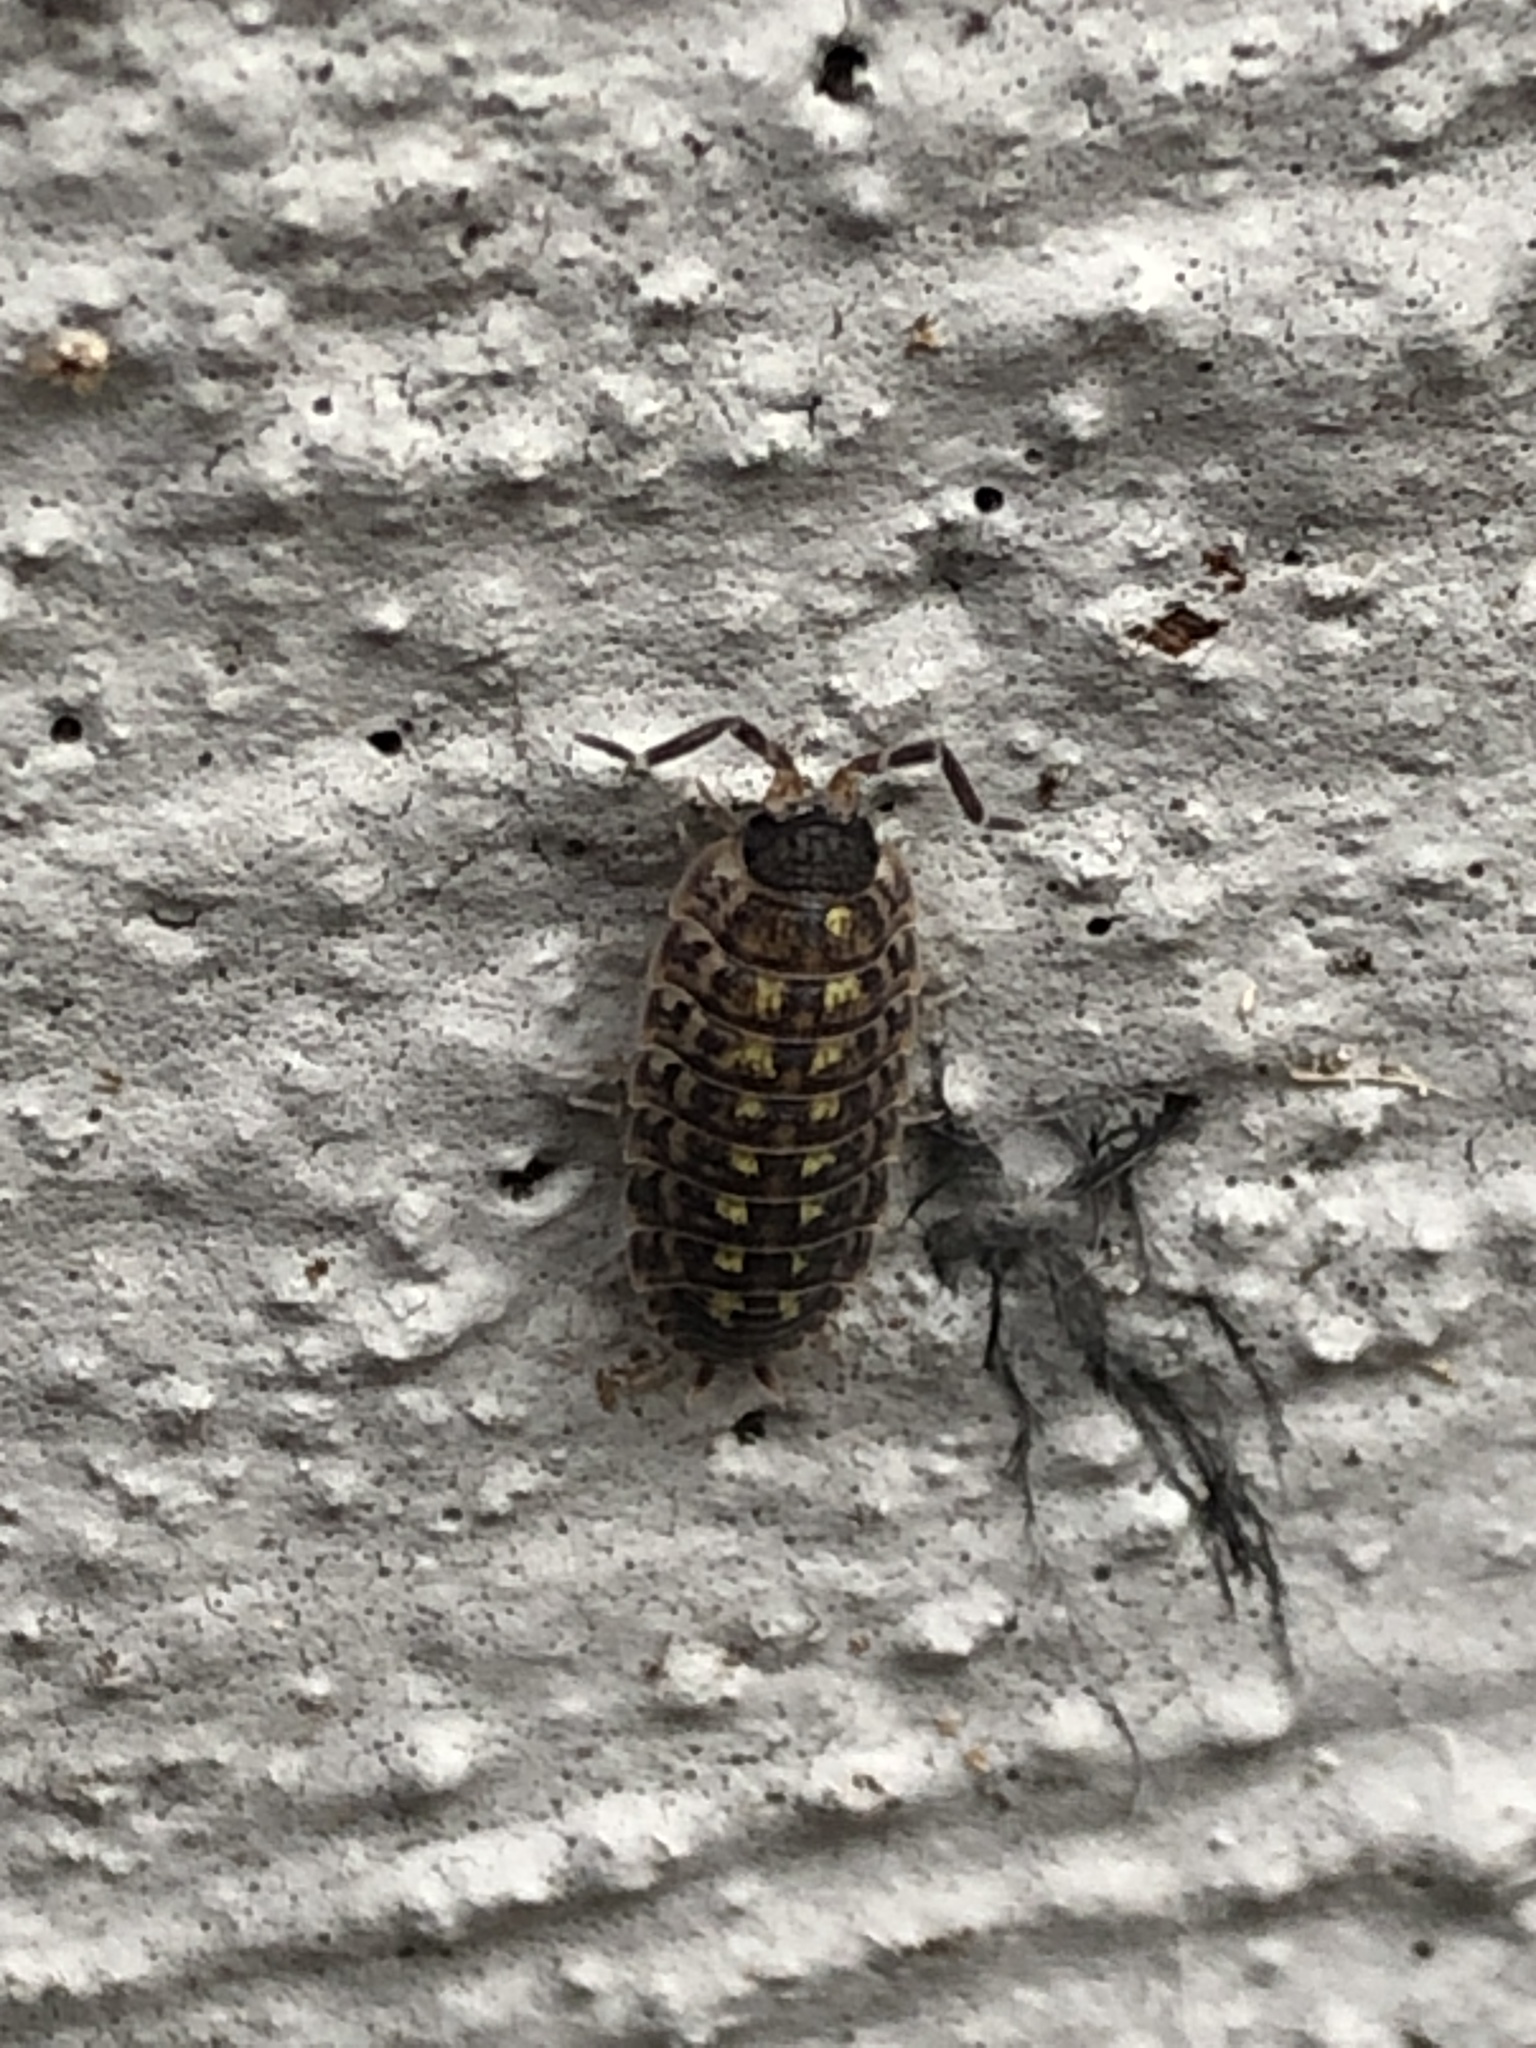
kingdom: Animalia
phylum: Arthropoda
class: Malacostraca
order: Isopoda
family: Porcellionidae
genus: Porcellio
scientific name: Porcellio spinicornis
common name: Painted woodlouse
